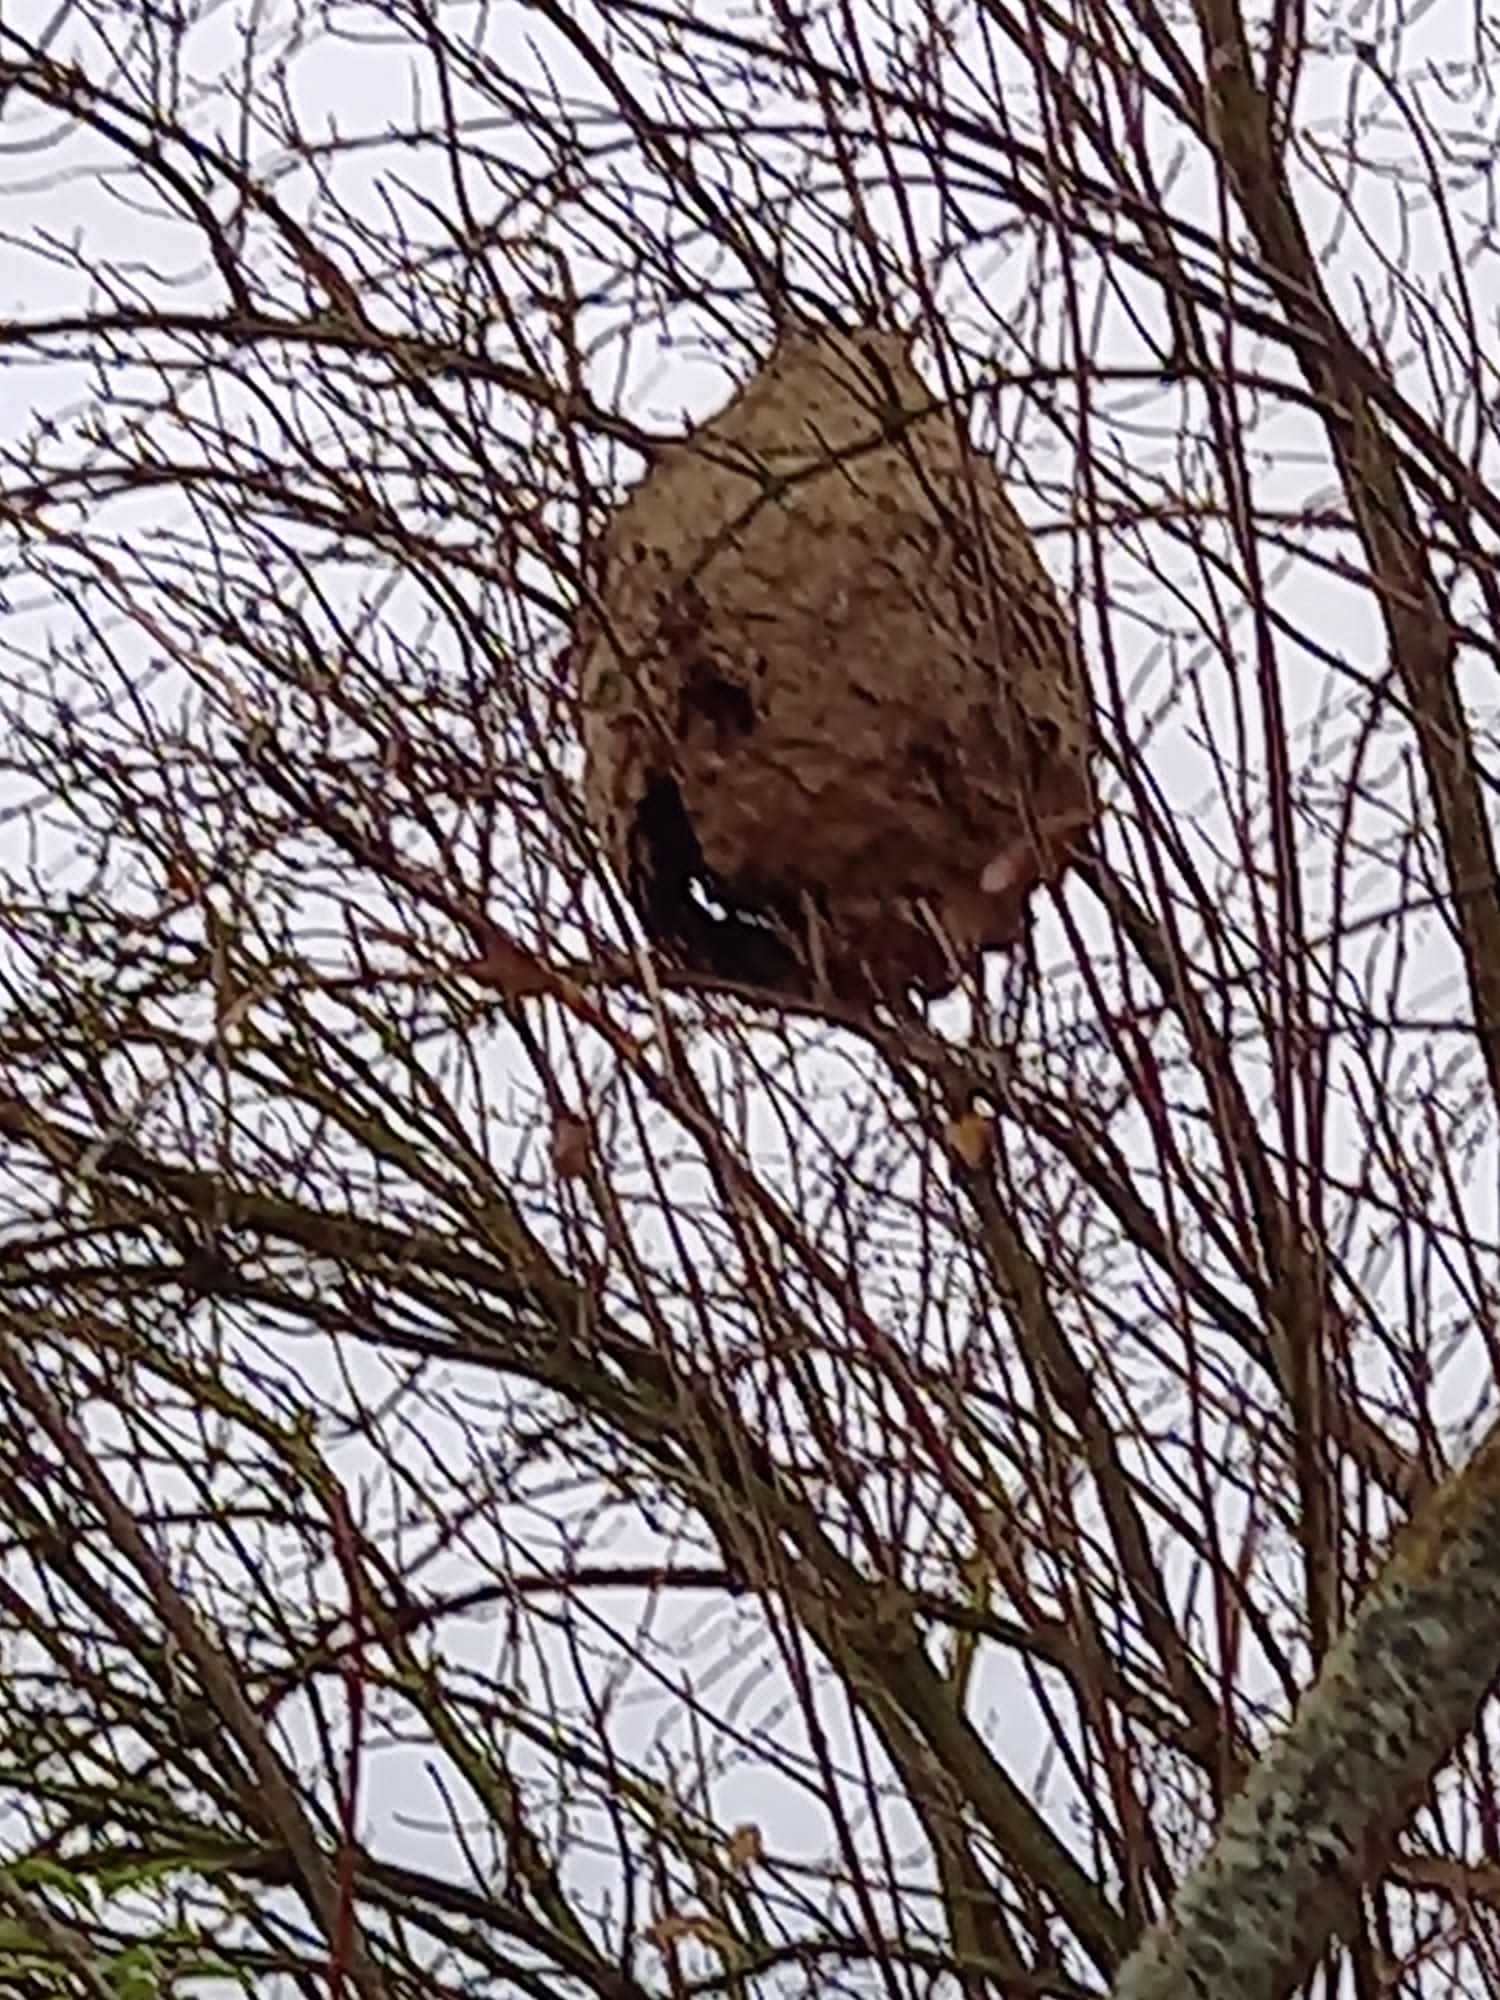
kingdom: Animalia
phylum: Arthropoda
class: Insecta
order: Hymenoptera
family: Vespidae
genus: Vespa
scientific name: Vespa velutina
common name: Asian hornet
